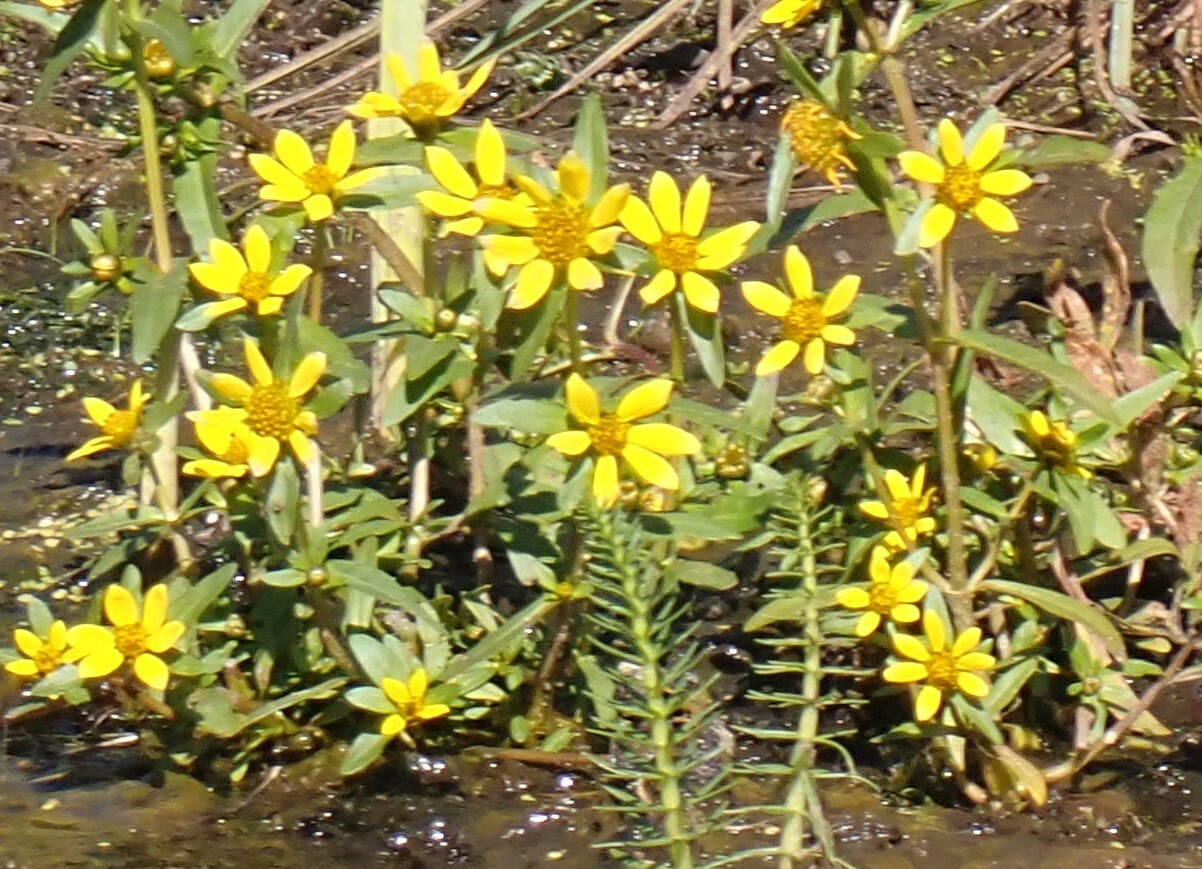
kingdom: Plantae
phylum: Tracheophyta
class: Magnoliopsida
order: Asterales
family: Asteraceae
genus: Bidens
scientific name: Bidens cernua
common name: Nodding bur-marigold
